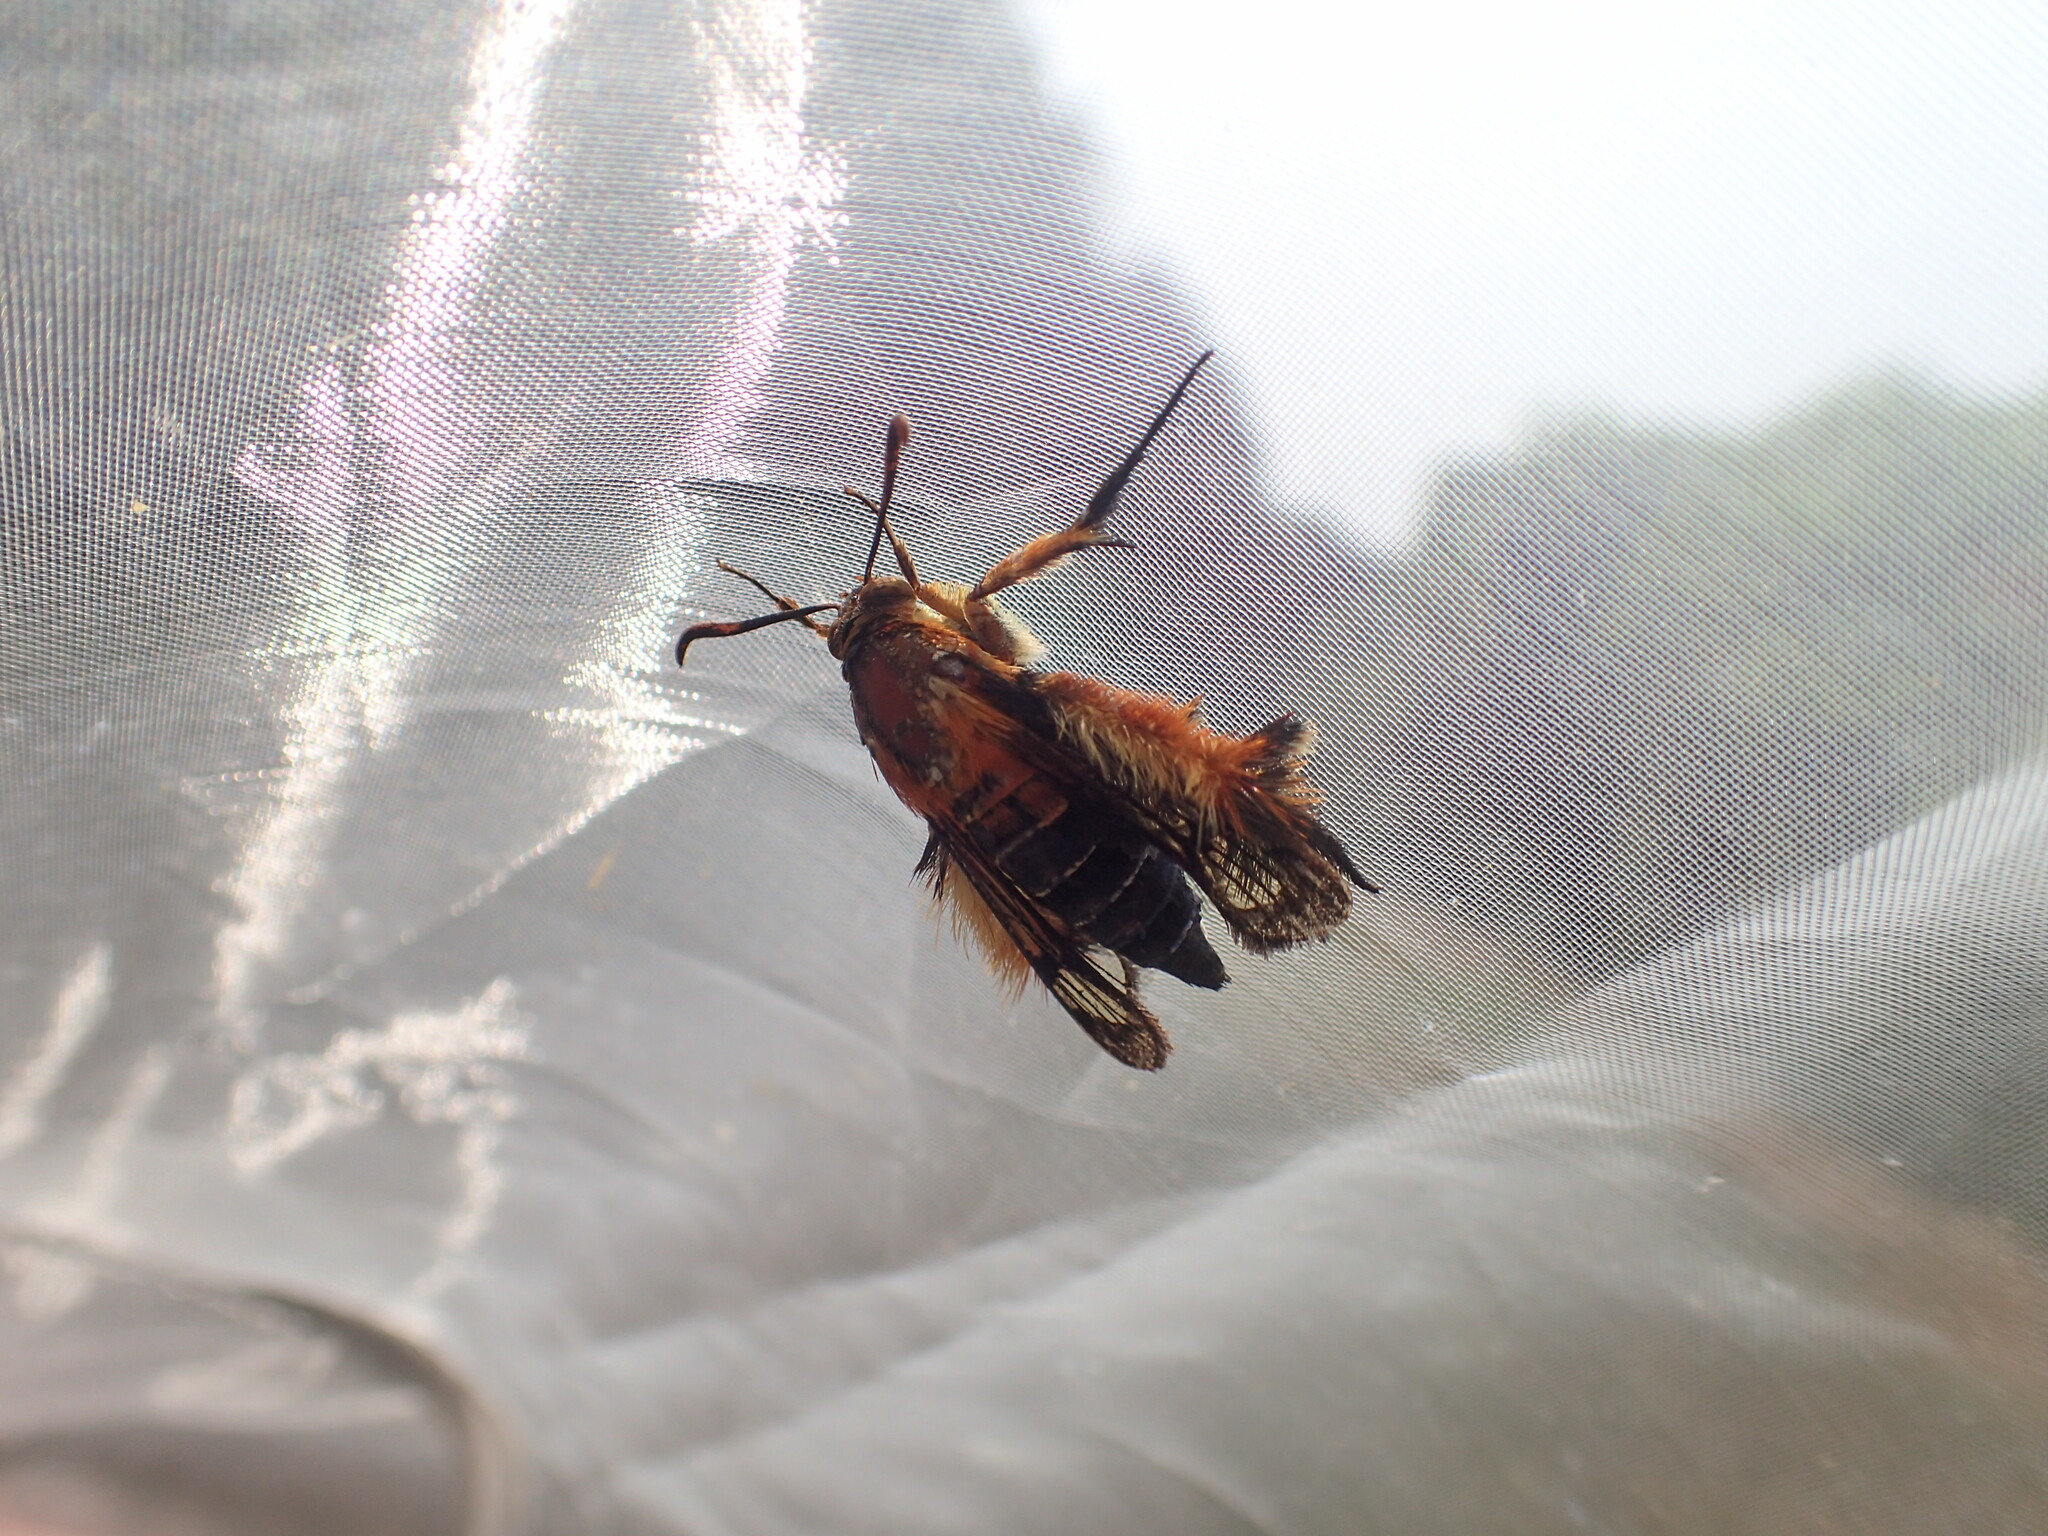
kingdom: Animalia
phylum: Arthropoda
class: Insecta
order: Lepidoptera
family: Sesiidae
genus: Melittia
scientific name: Melittia sangaica
